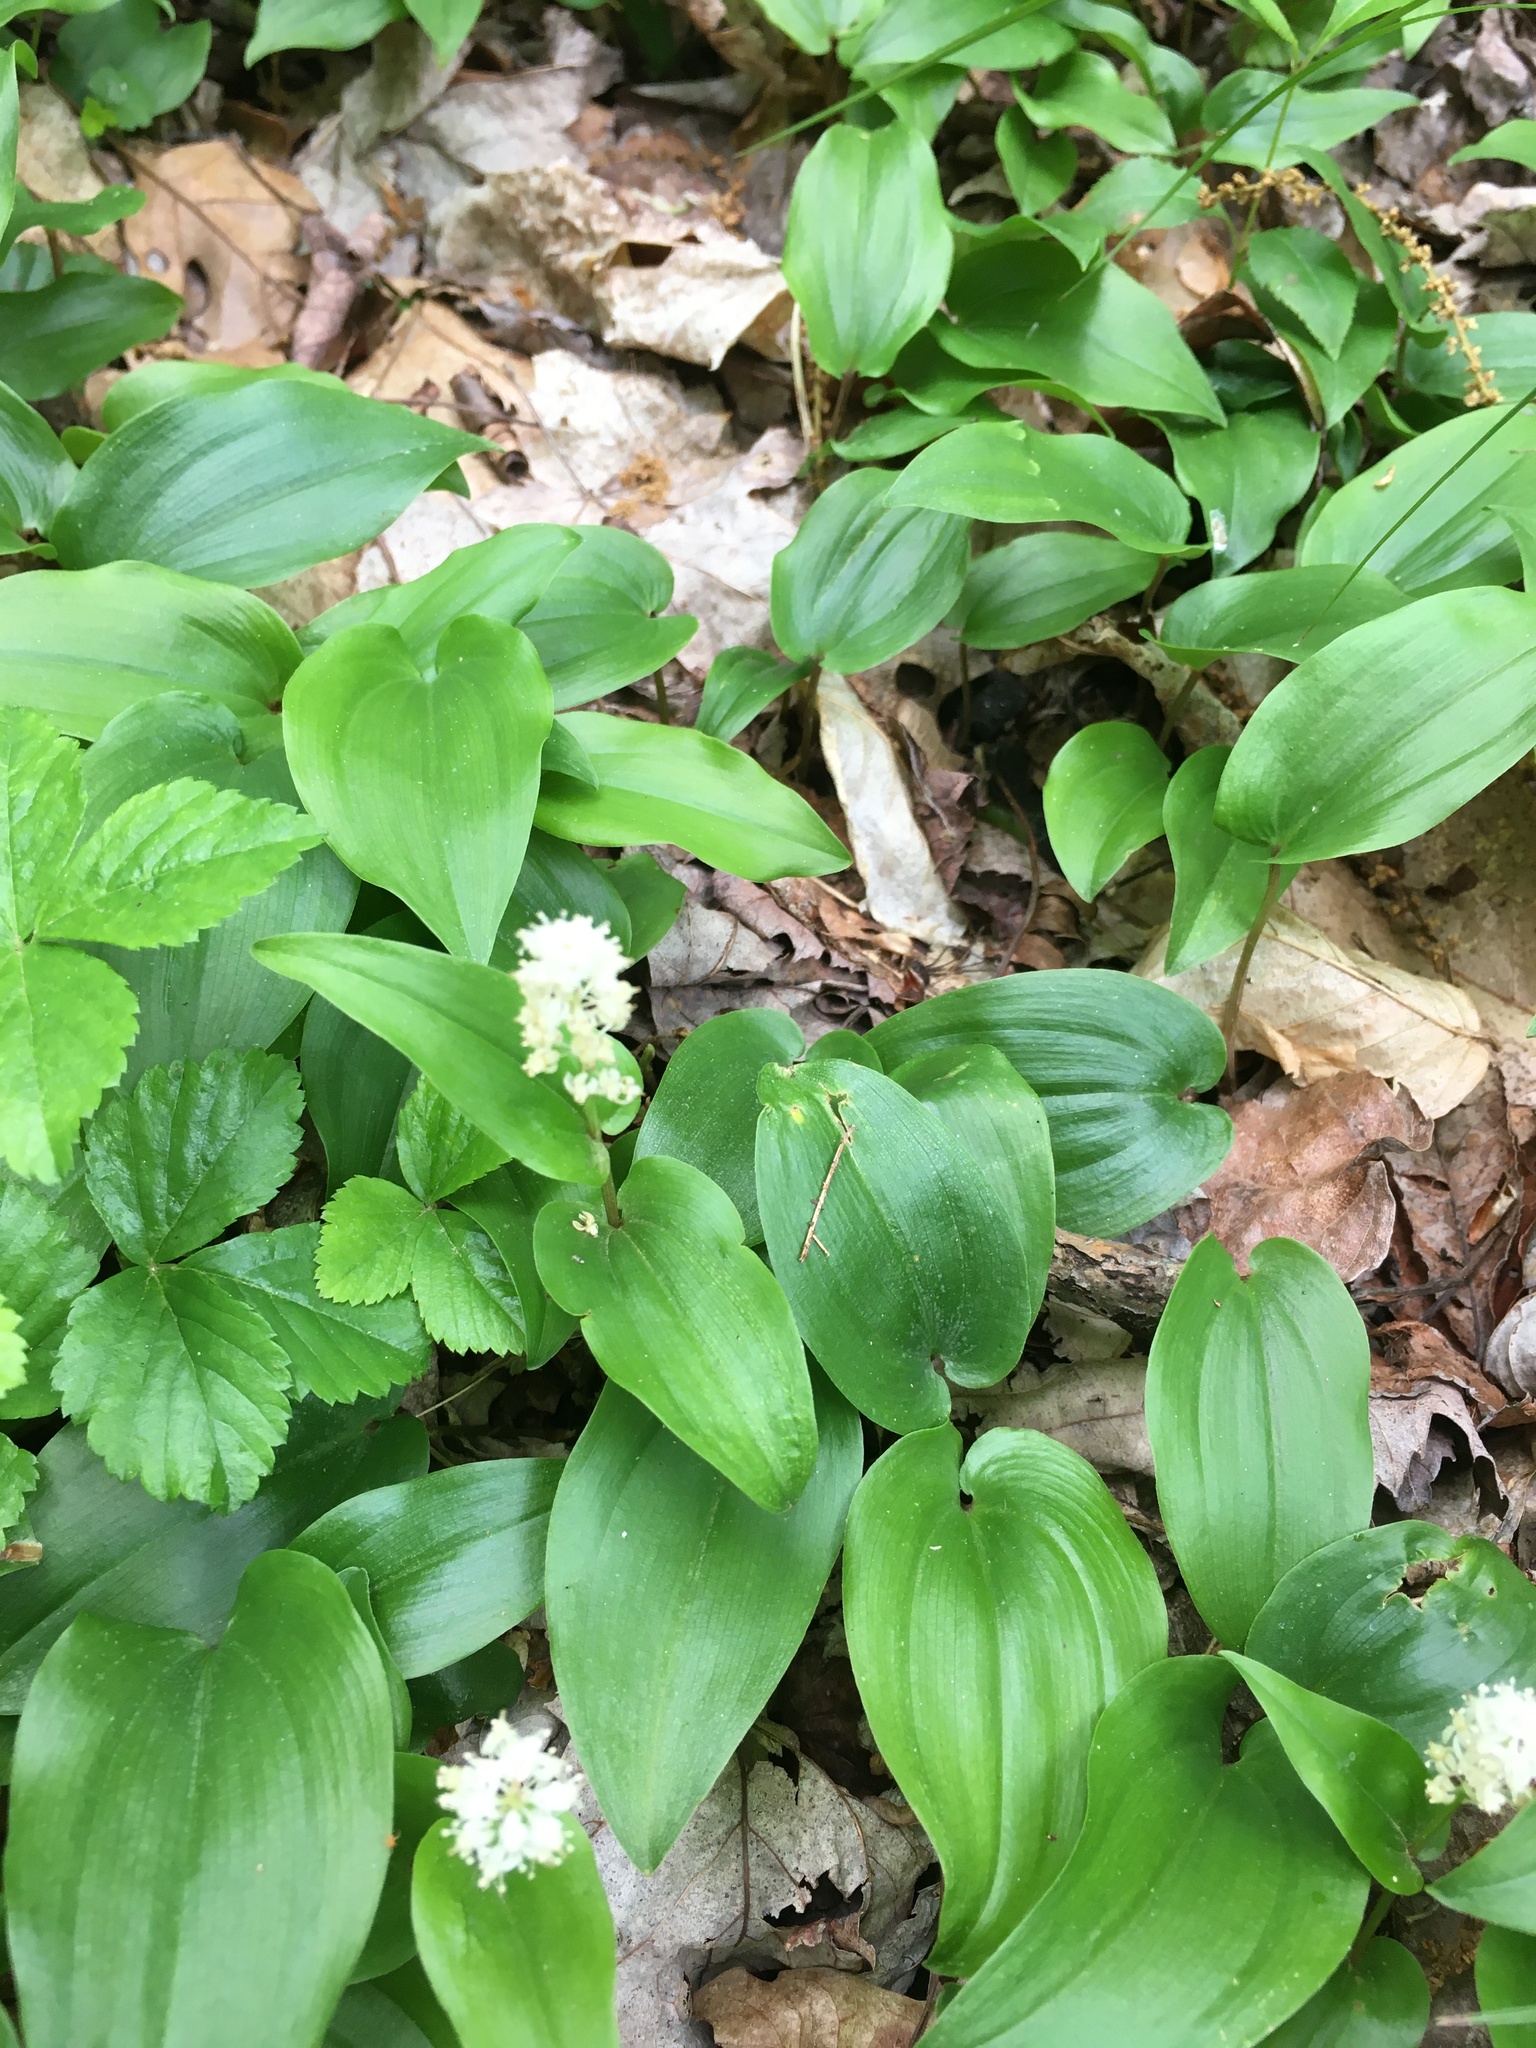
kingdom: Plantae
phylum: Tracheophyta
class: Liliopsida
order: Asparagales
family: Asparagaceae
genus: Maianthemum
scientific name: Maianthemum canadense
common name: False lily-of-the-valley
